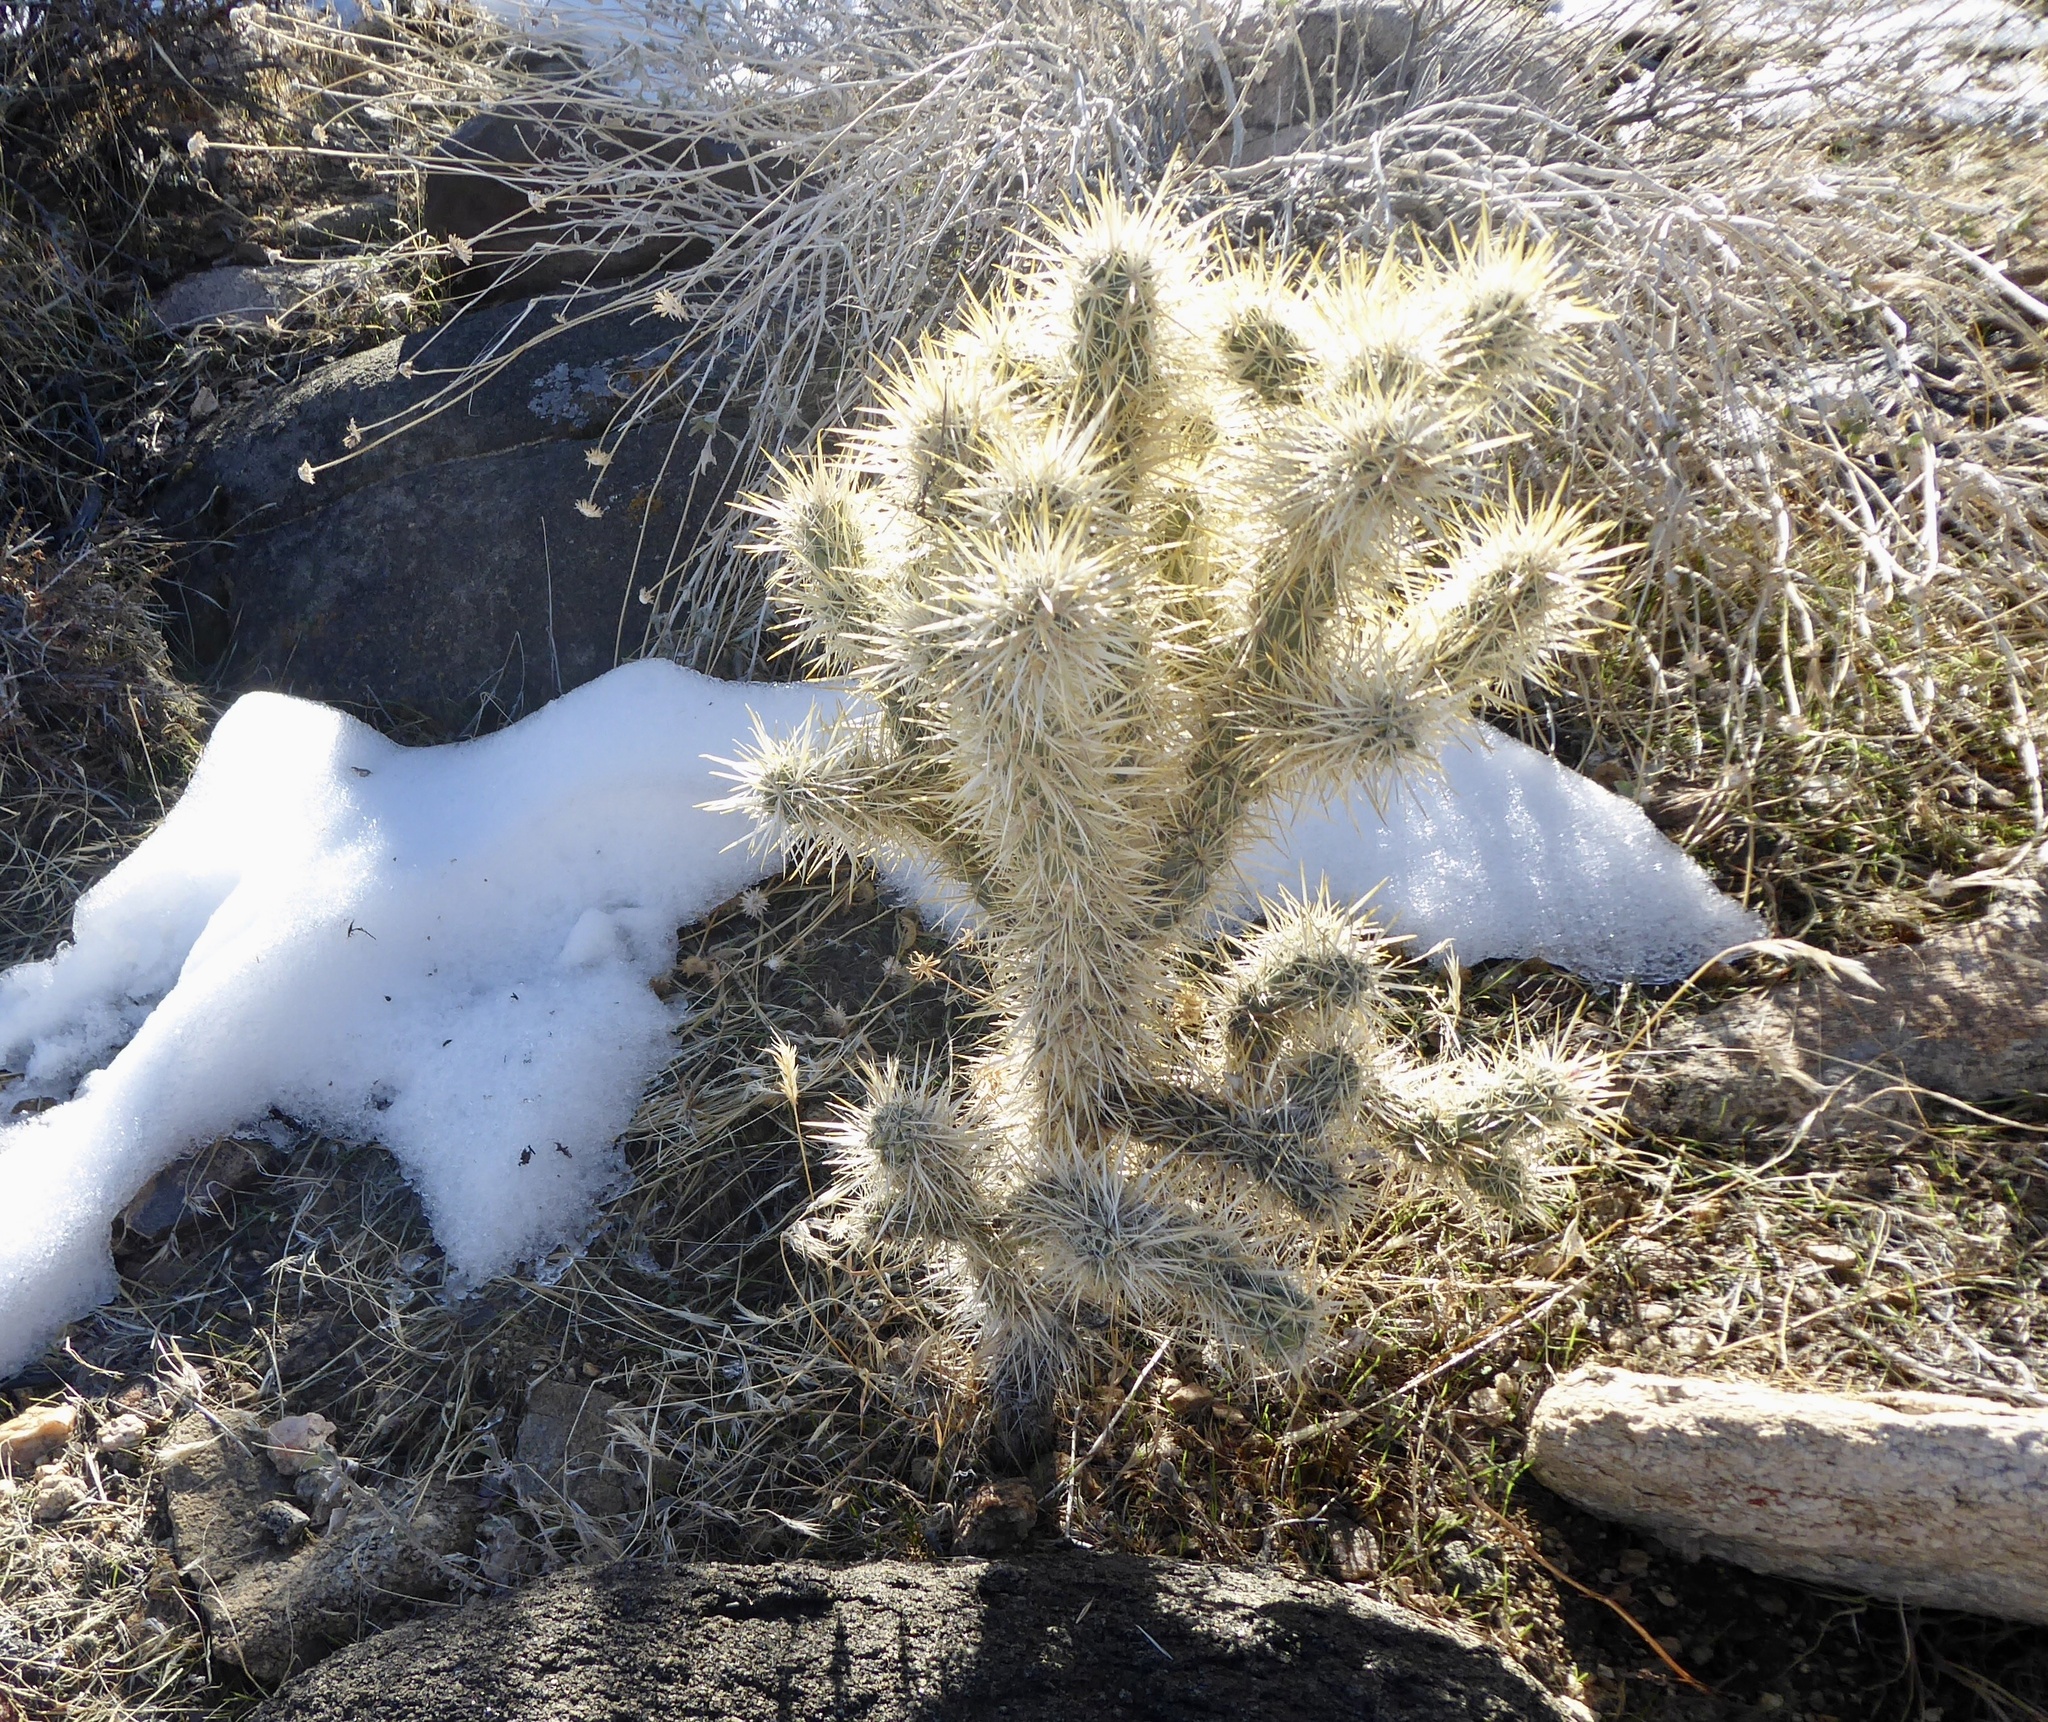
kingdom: Plantae
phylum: Tracheophyta
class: Magnoliopsida
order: Caryophyllales
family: Cactaceae
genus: Cylindropuntia
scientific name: Cylindropuntia echinocarpa
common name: Ground cholla
